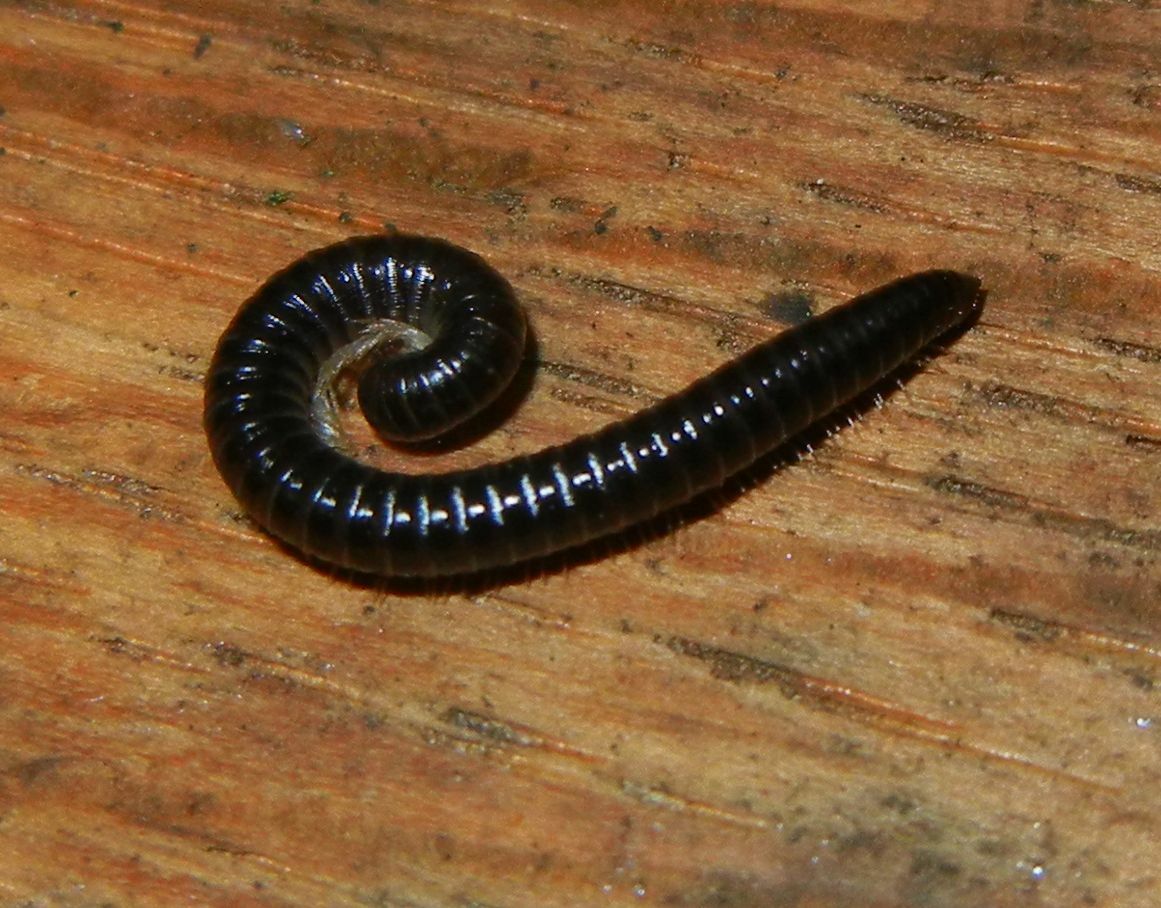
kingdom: Animalia
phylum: Arthropoda
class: Diplopoda
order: Julida
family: Julidae
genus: Tachypodoiulus
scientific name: Tachypodoiulus niger
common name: White-legged snake millipede
